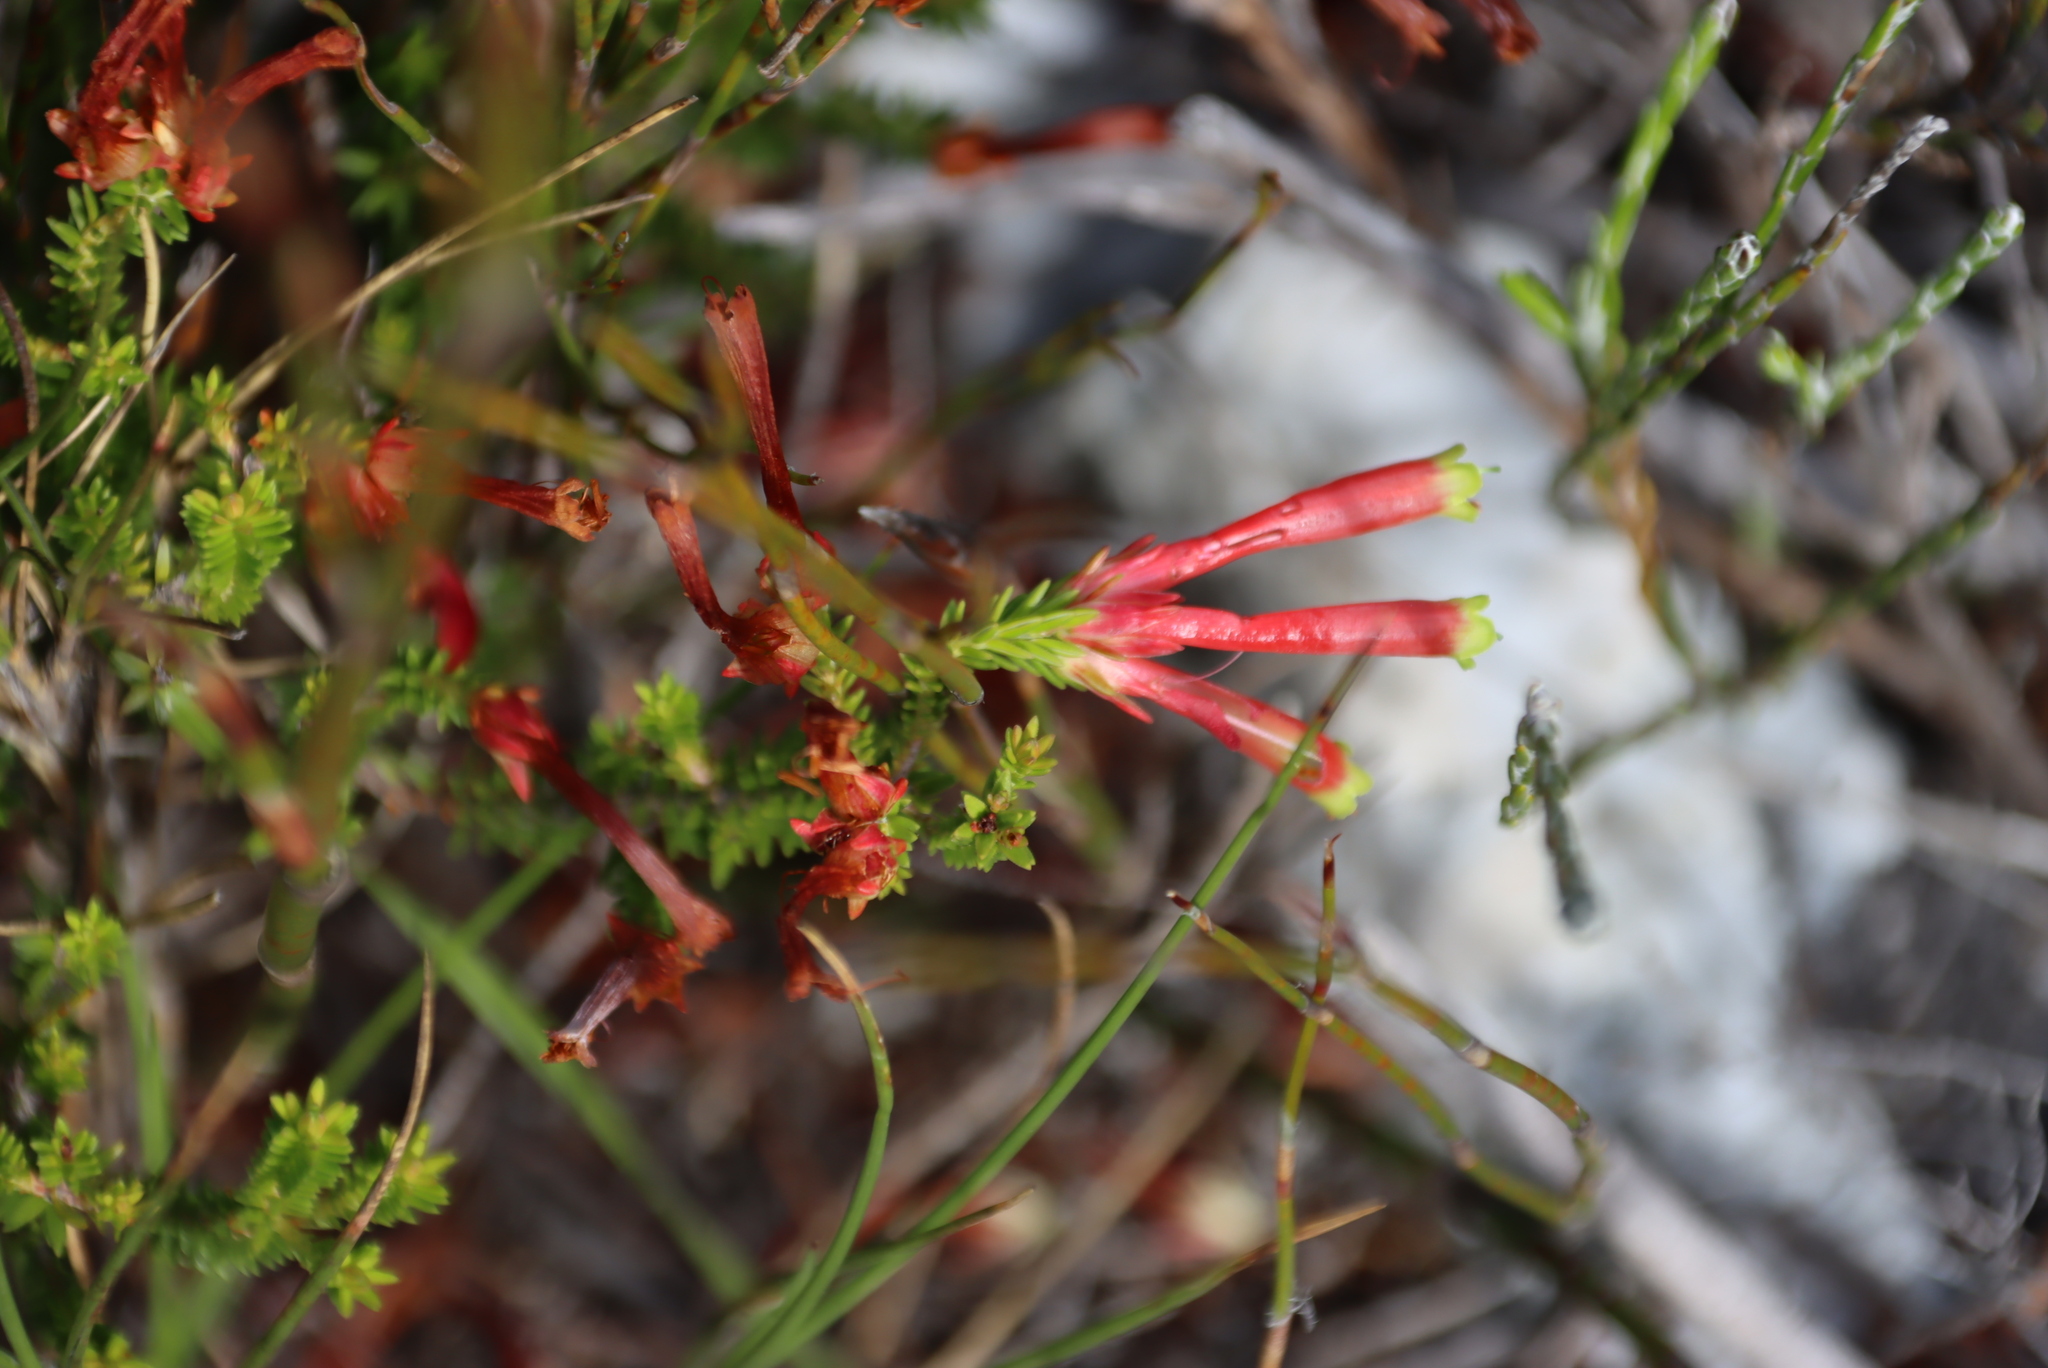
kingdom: Plantae
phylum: Tracheophyta
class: Magnoliopsida
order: Ericales
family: Ericaceae
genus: Erica
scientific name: Erica discolor
